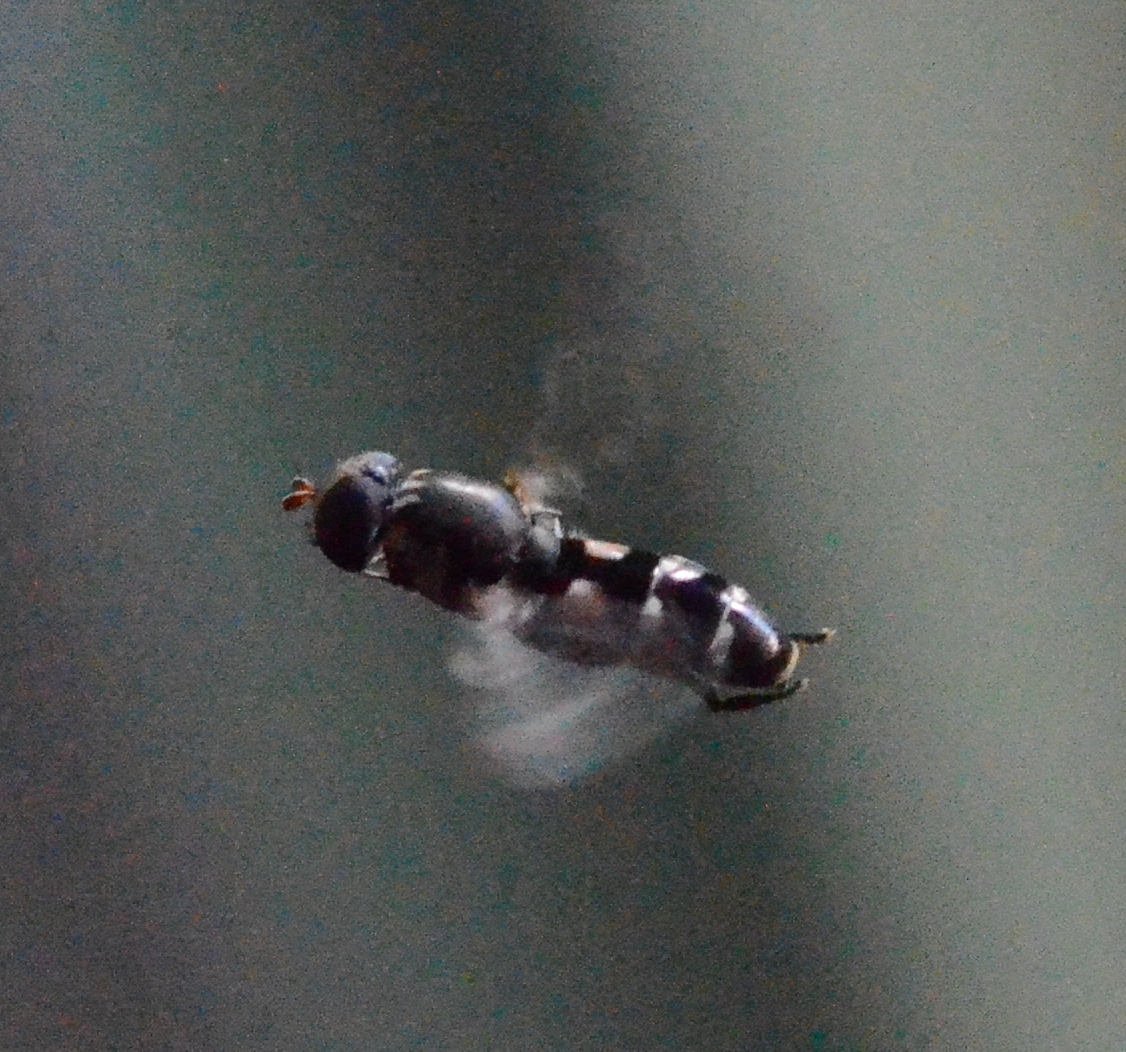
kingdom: Animalia
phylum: Arthropoda
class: Insecta
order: Diptera
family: Syrphidae
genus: Syritta
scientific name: Syritta pipiens
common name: Hover fly
